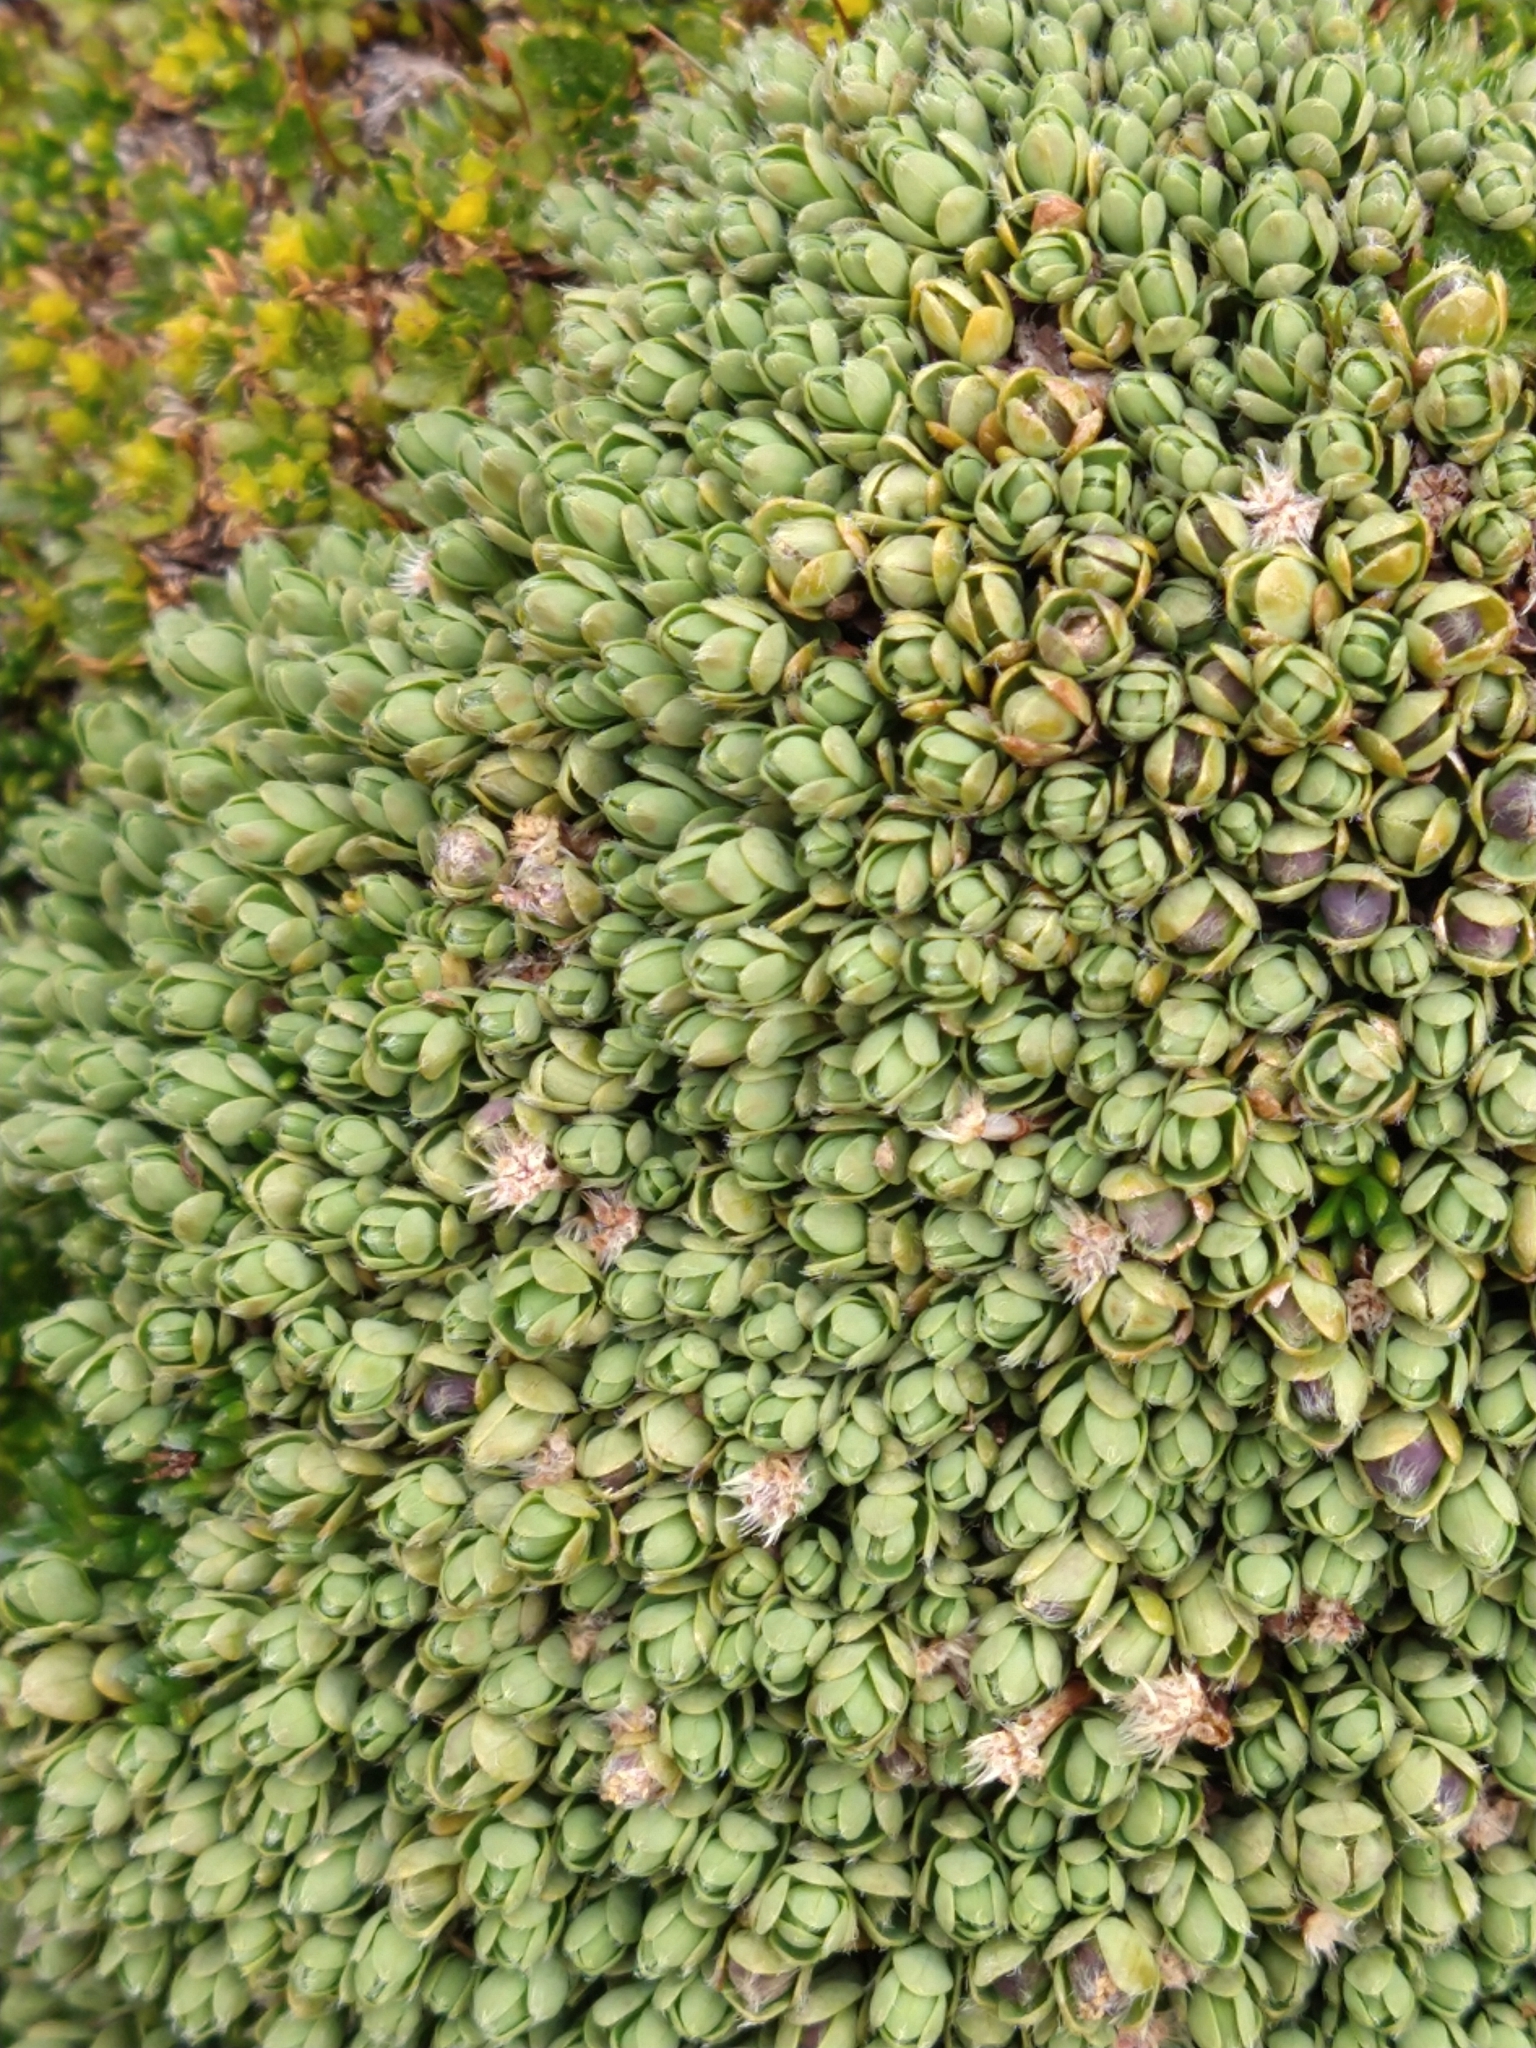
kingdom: Plantae
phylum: Tracheophyta
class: Magnoliopsida
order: Asterales
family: Asteraceae
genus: Baccharis
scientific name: Baccharis magellanica
